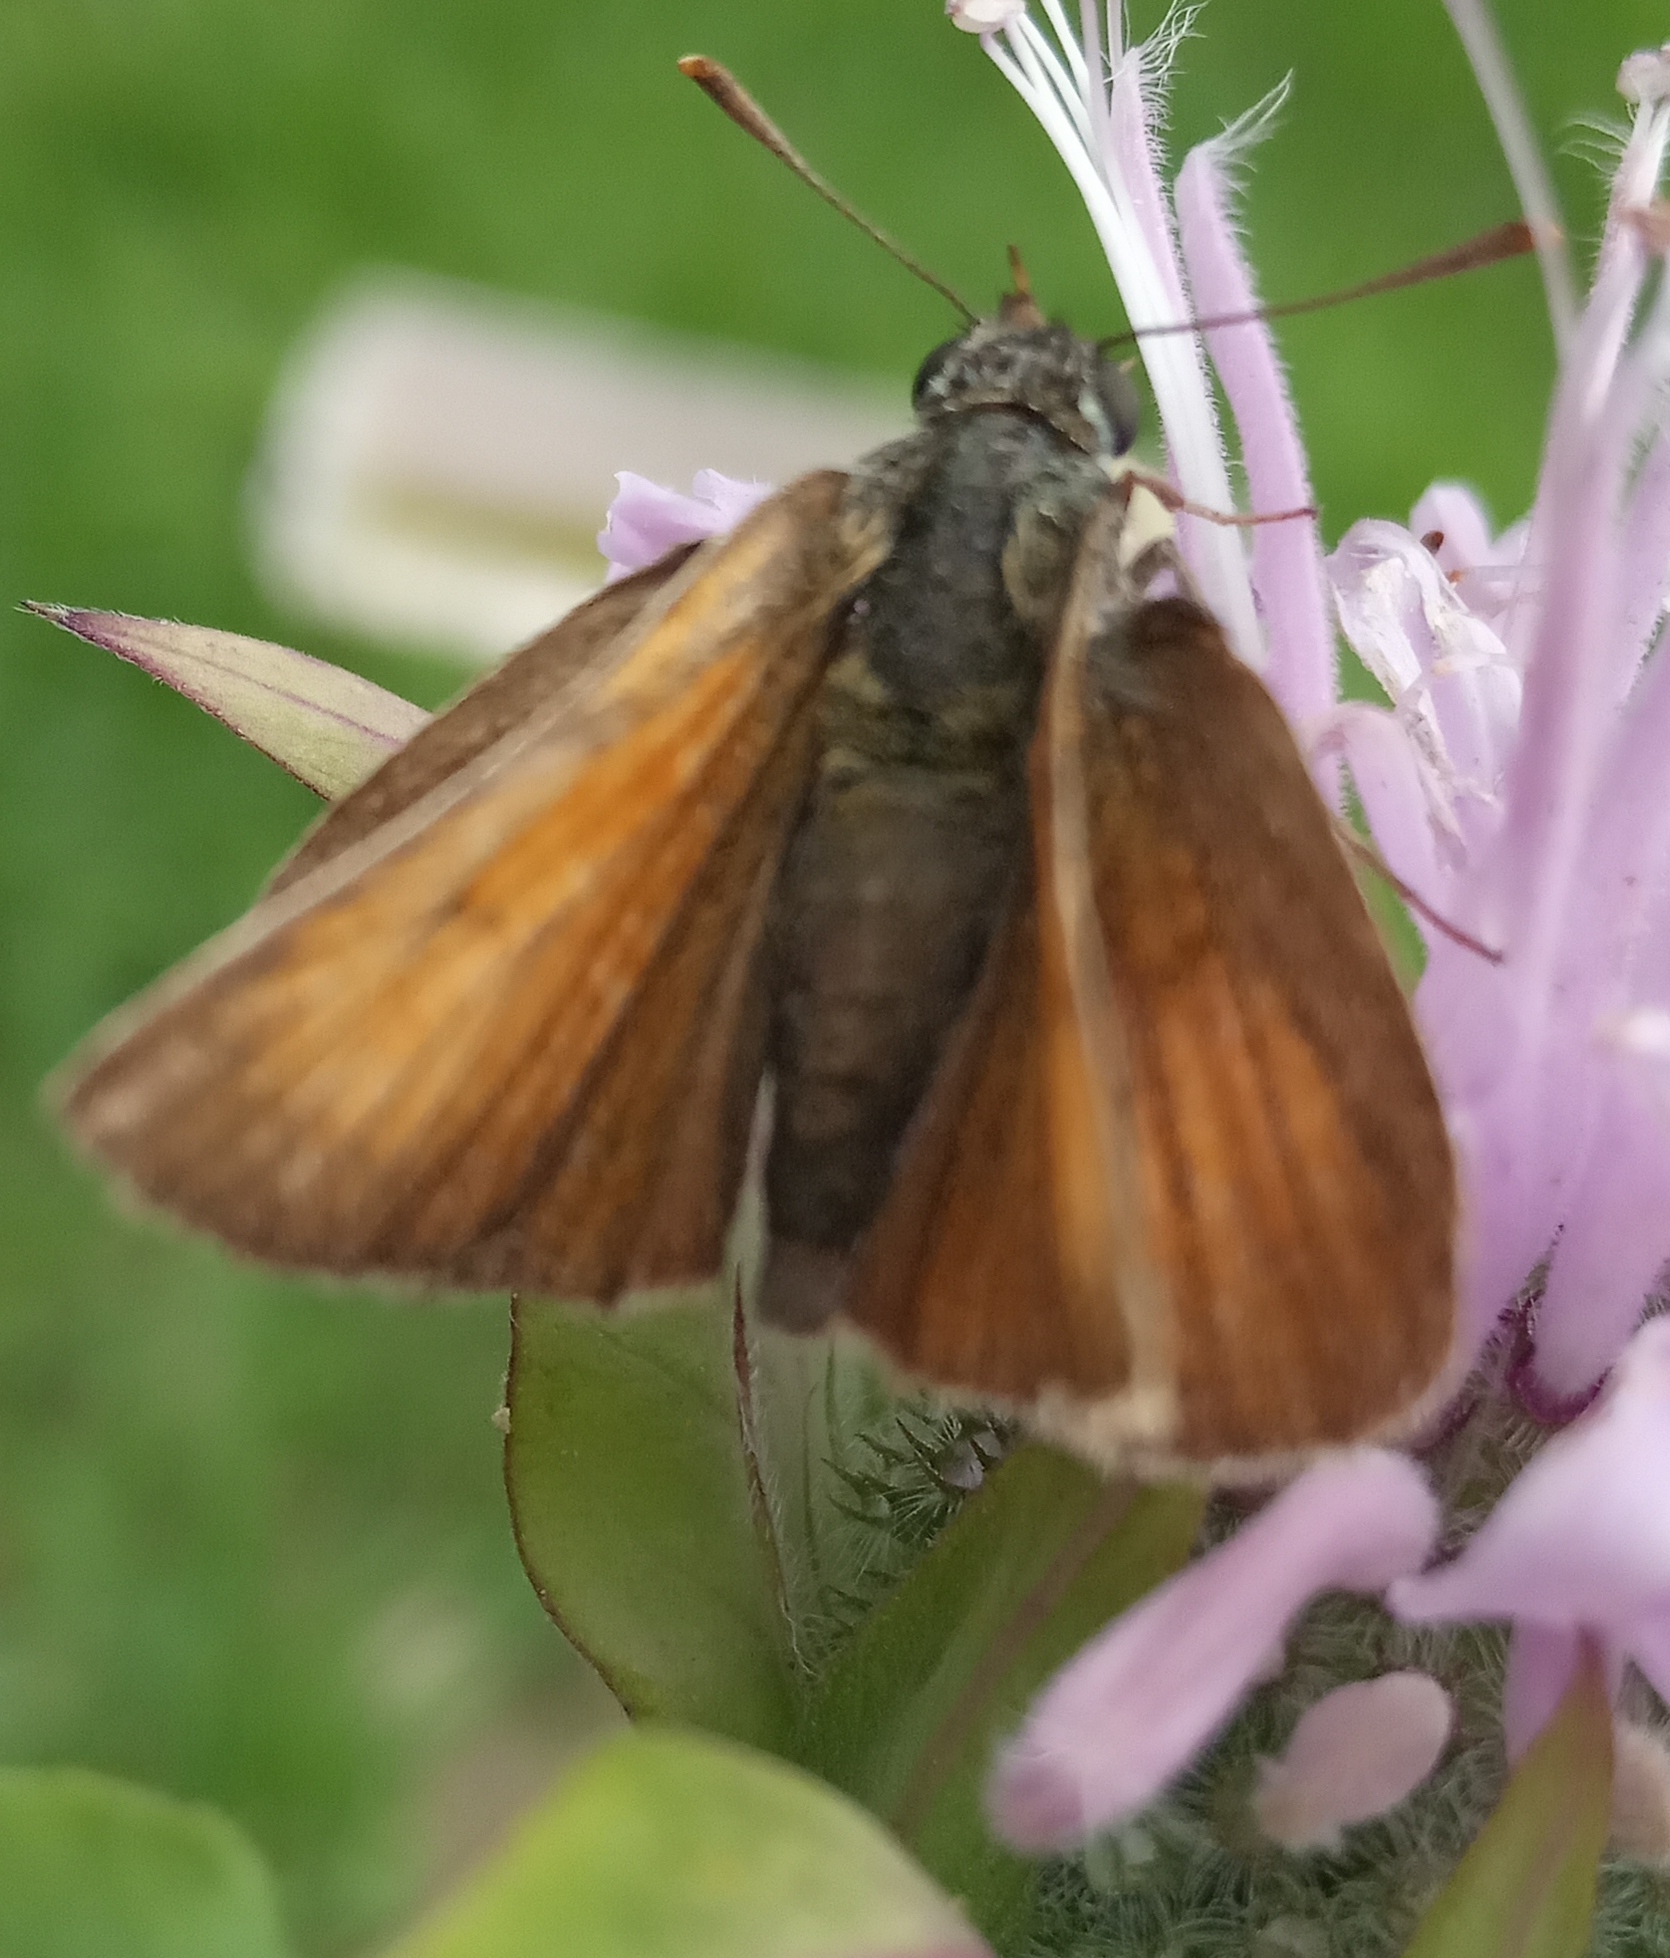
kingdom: Animalia
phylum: Arthropoda
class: Insecta
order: Lepidoptera
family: Hesperiidae
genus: Thymelicus
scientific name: Thymelicus sylvestris
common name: Small skipper
